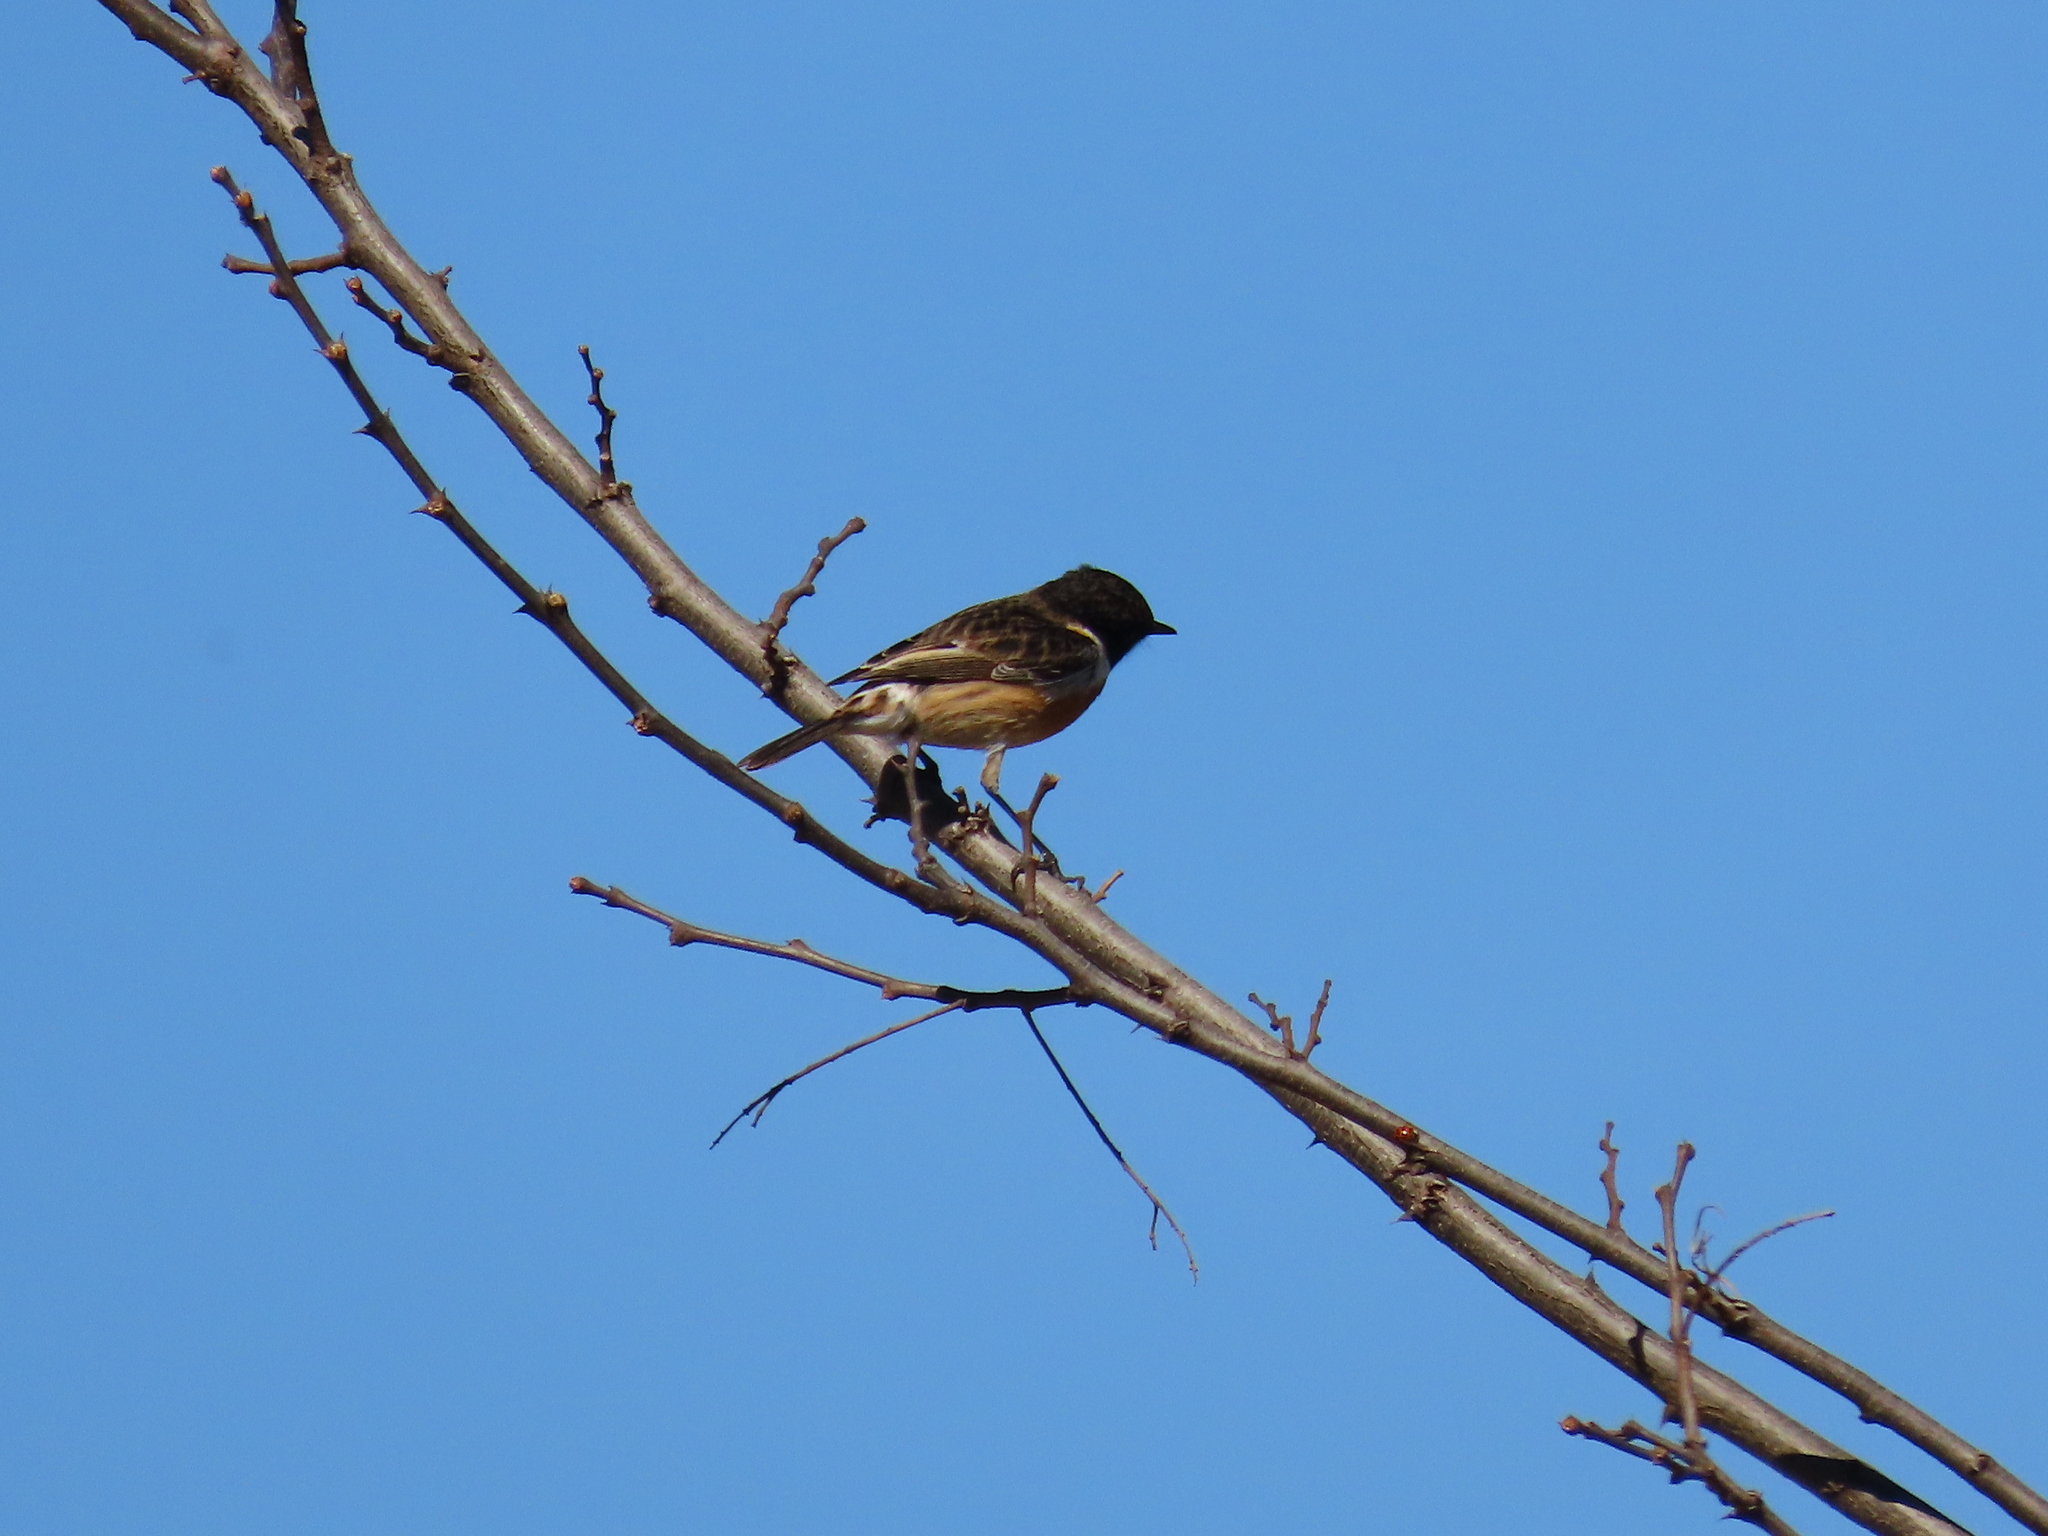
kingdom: Animalia
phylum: Chordata
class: Aves
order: Passeriformes
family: Muscicapidae
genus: Saxicola
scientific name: Saxicola rubicola
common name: European stonechat
